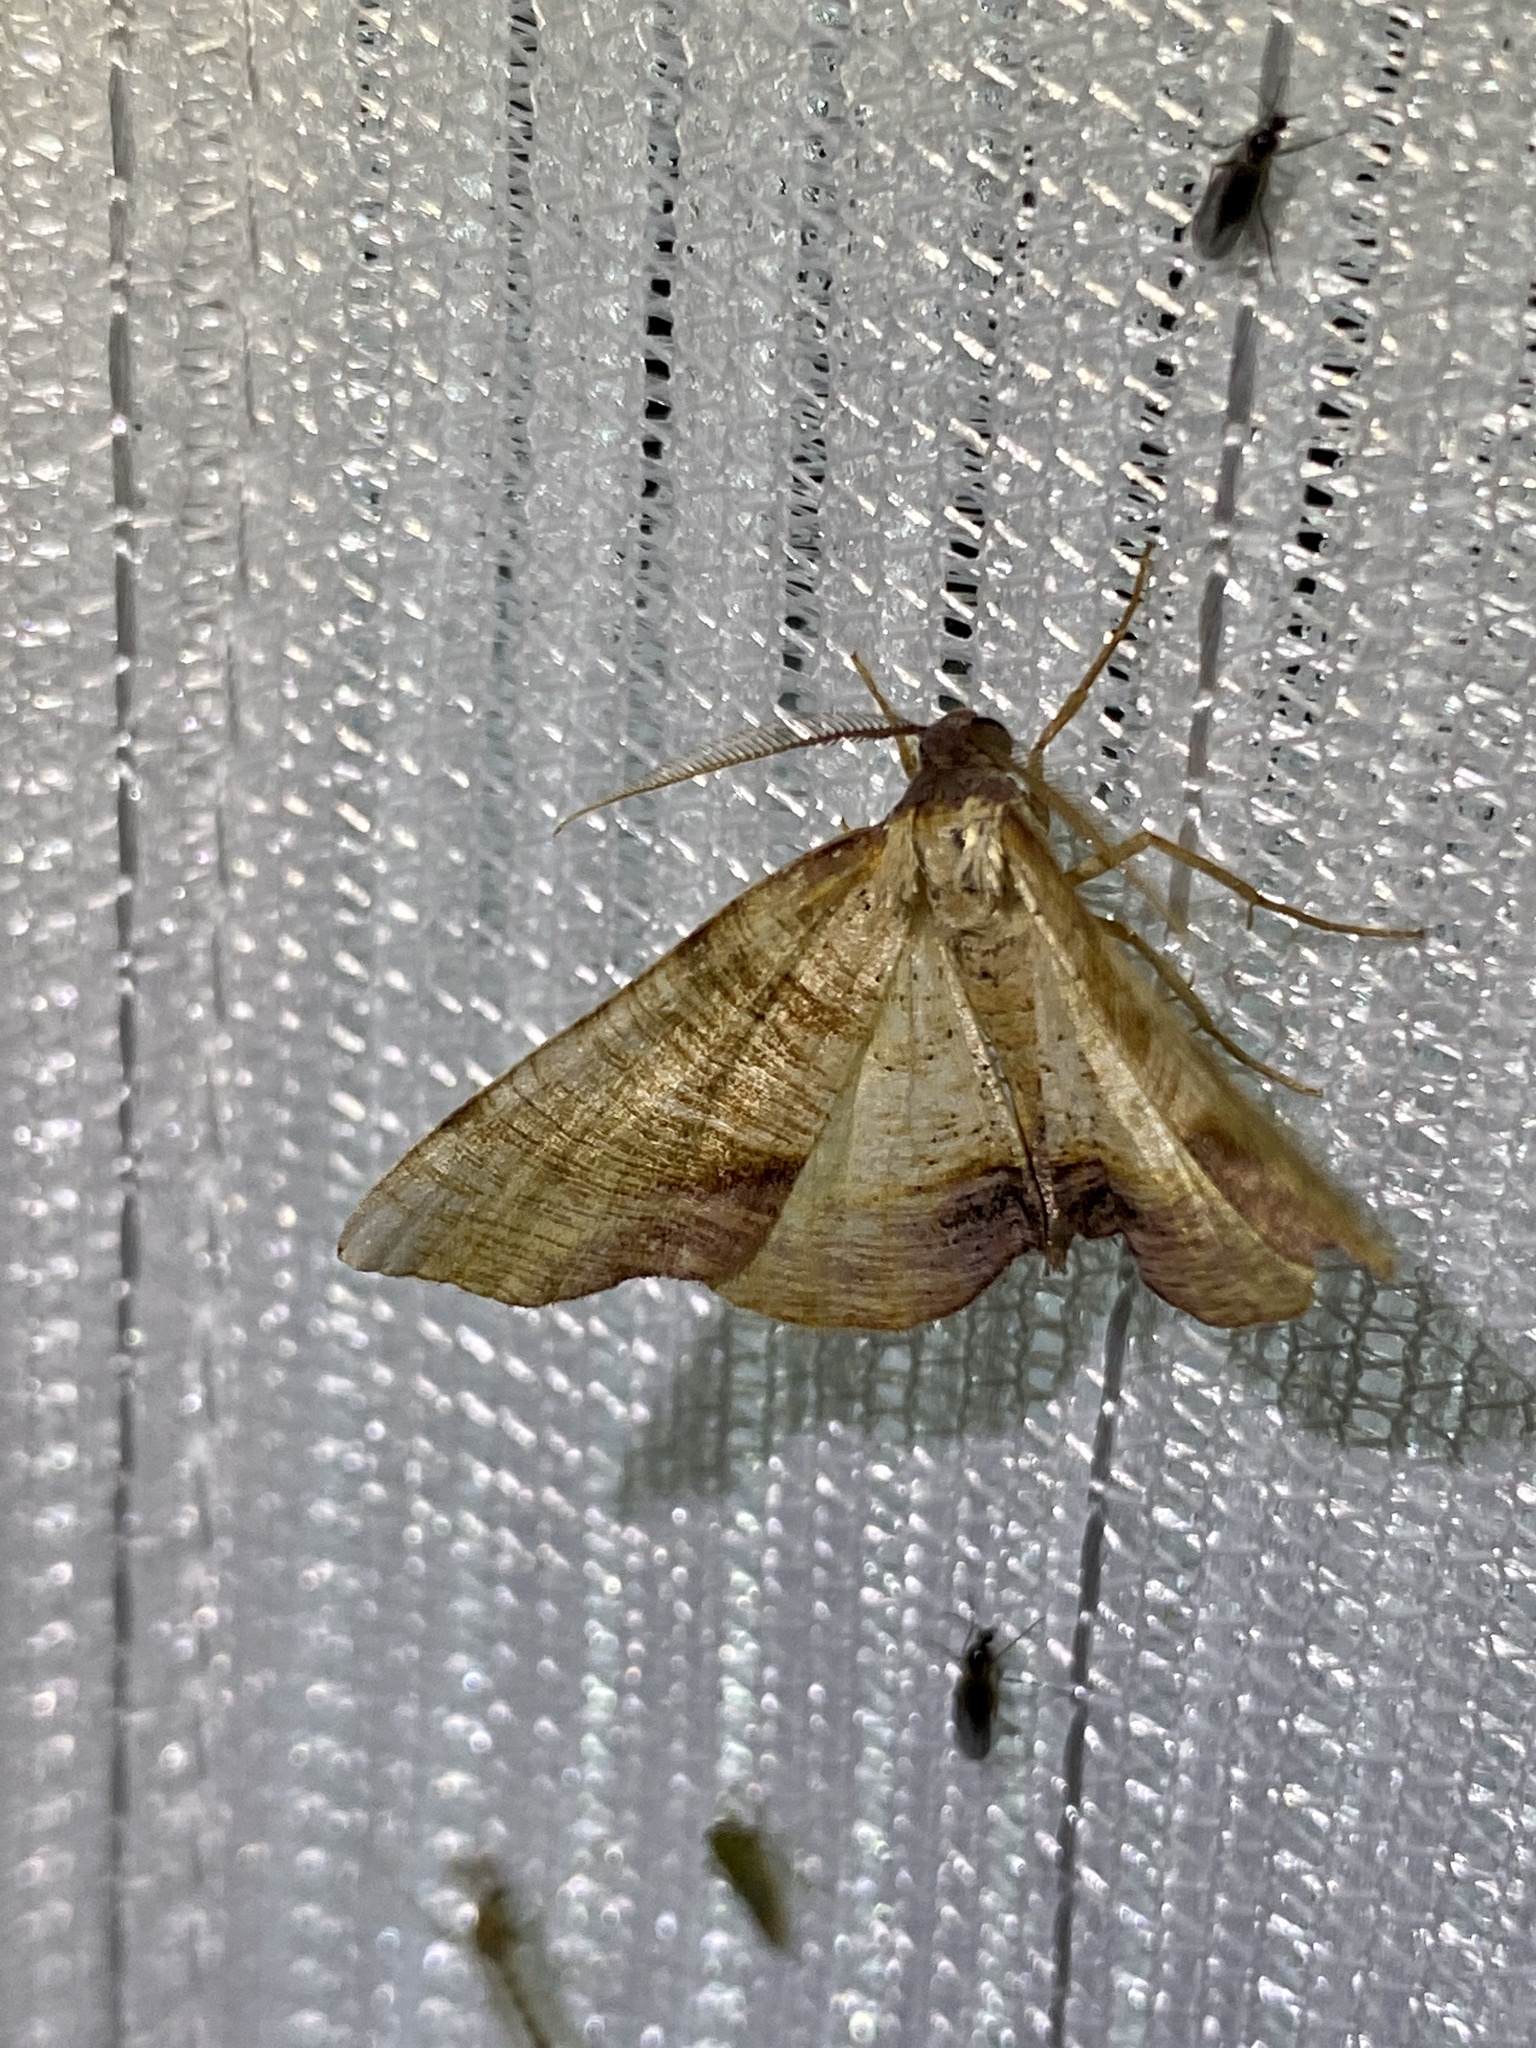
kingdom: Animalia
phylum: Arthropoda
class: Insecta
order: Lepidoptera
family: Geometridae
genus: Plagodis
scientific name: Plagodis dolabraria
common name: Scorched wing
